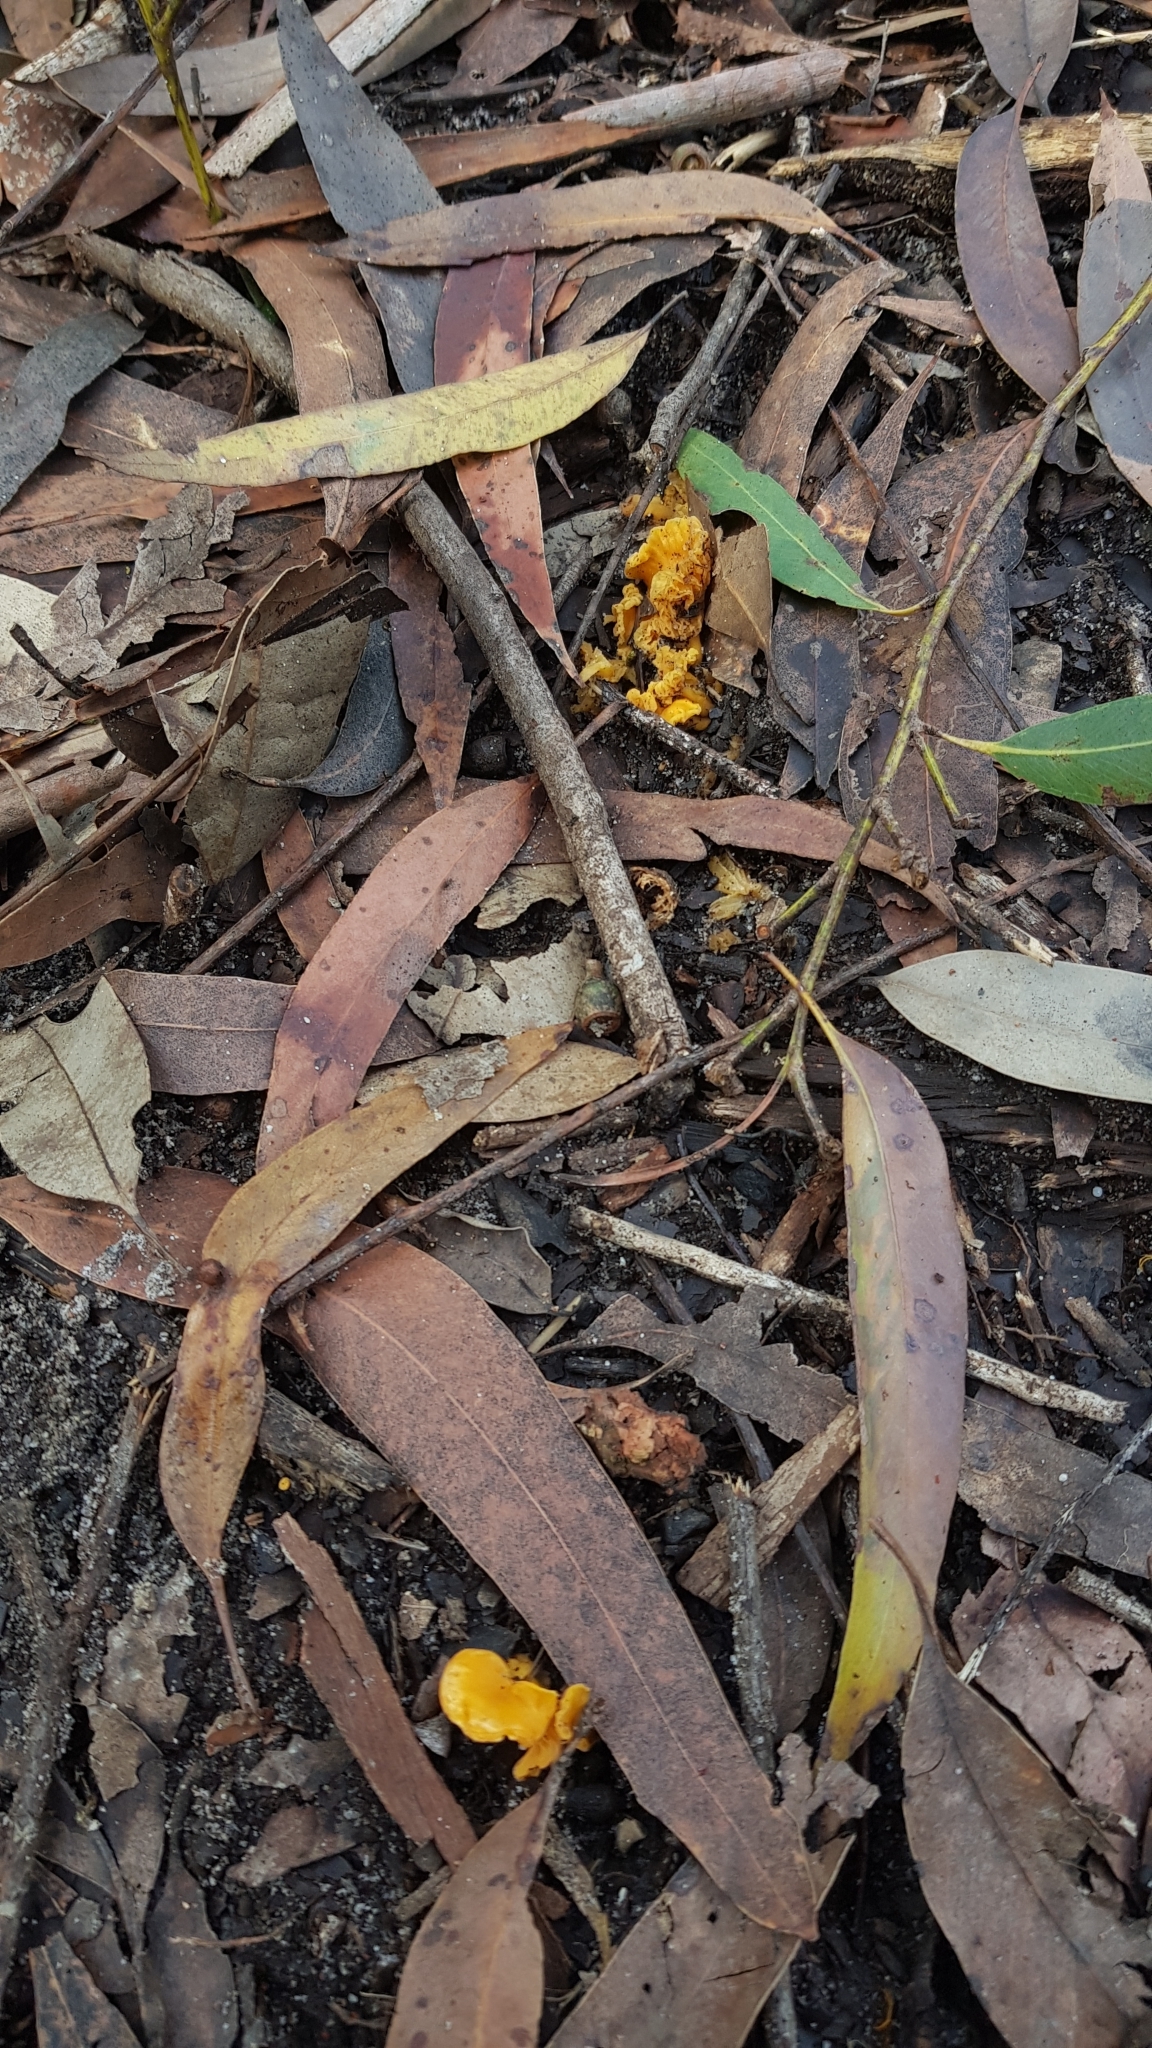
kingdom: Fungi
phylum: Basidiomycota
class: Agaricomycetes
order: Cantharellales
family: Hydnaceae
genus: Cantharellus
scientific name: Cantharellus
